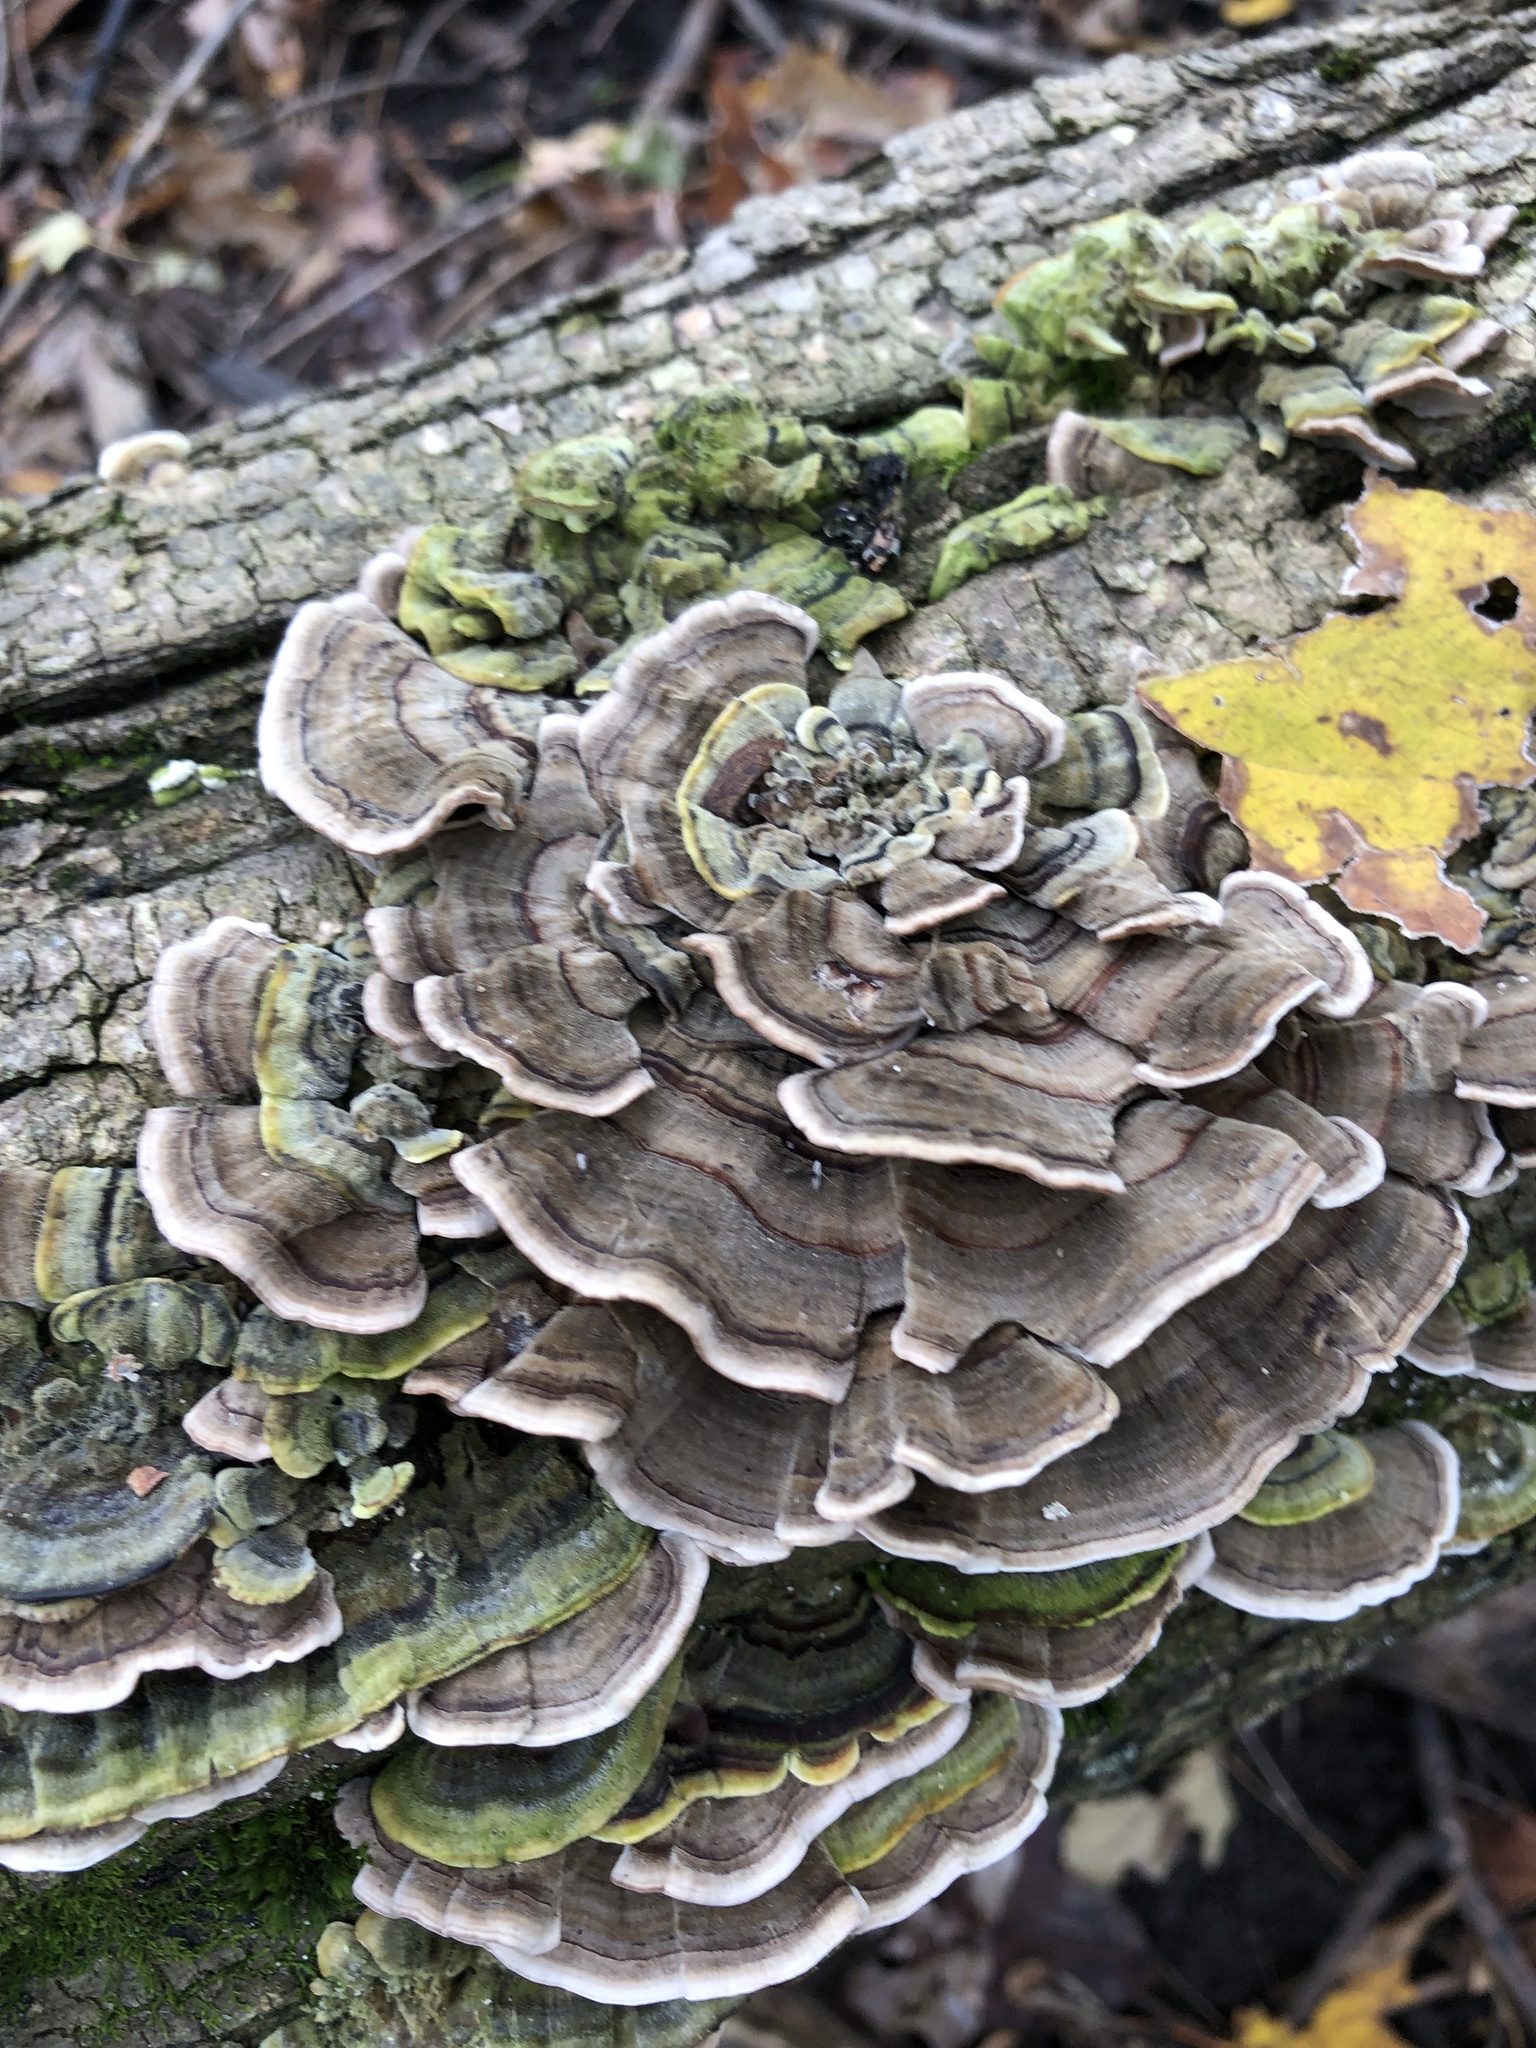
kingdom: Fungi
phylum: Basidiomycota
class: Agaricomycetes
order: Polyporales
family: Polyporaceae
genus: Trametes
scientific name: Trametes versicolor
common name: Turkeytail
